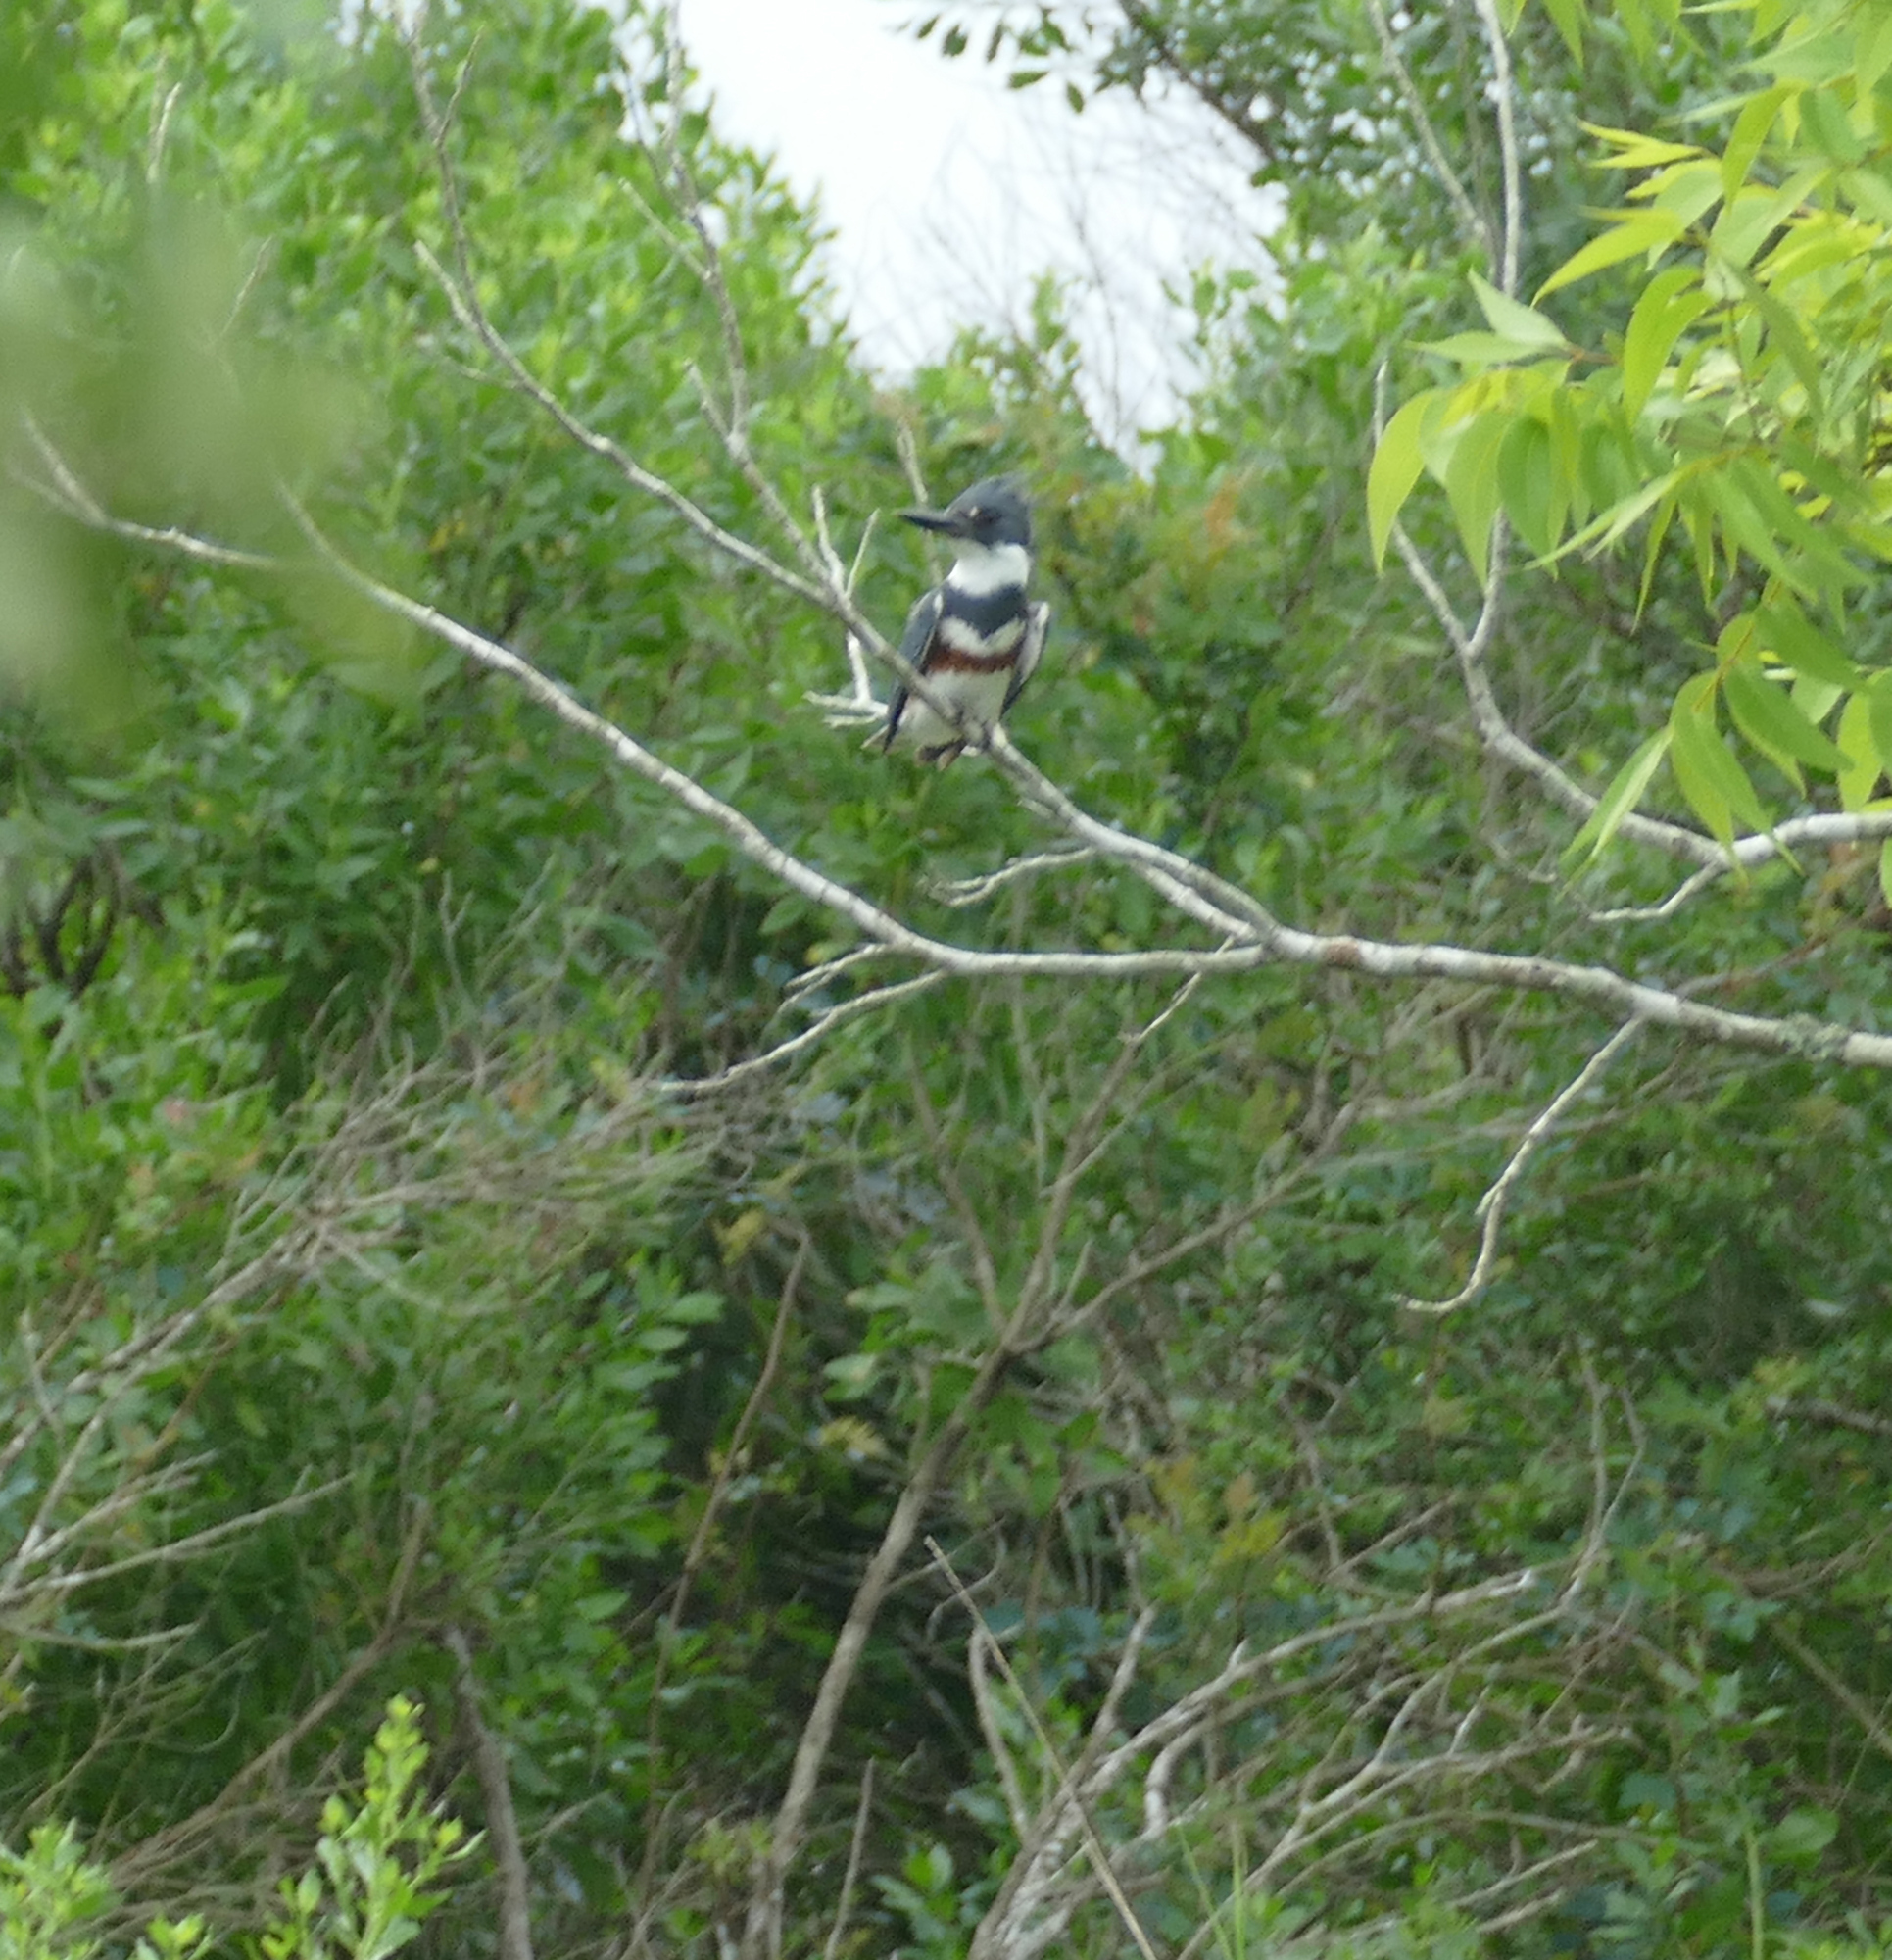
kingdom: Animalia
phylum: Chordata
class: Aves
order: Coraciiformes
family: Alcedinidae
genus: Megaceryle
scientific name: Megaceryle alcyon
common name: Belted kingfisher
